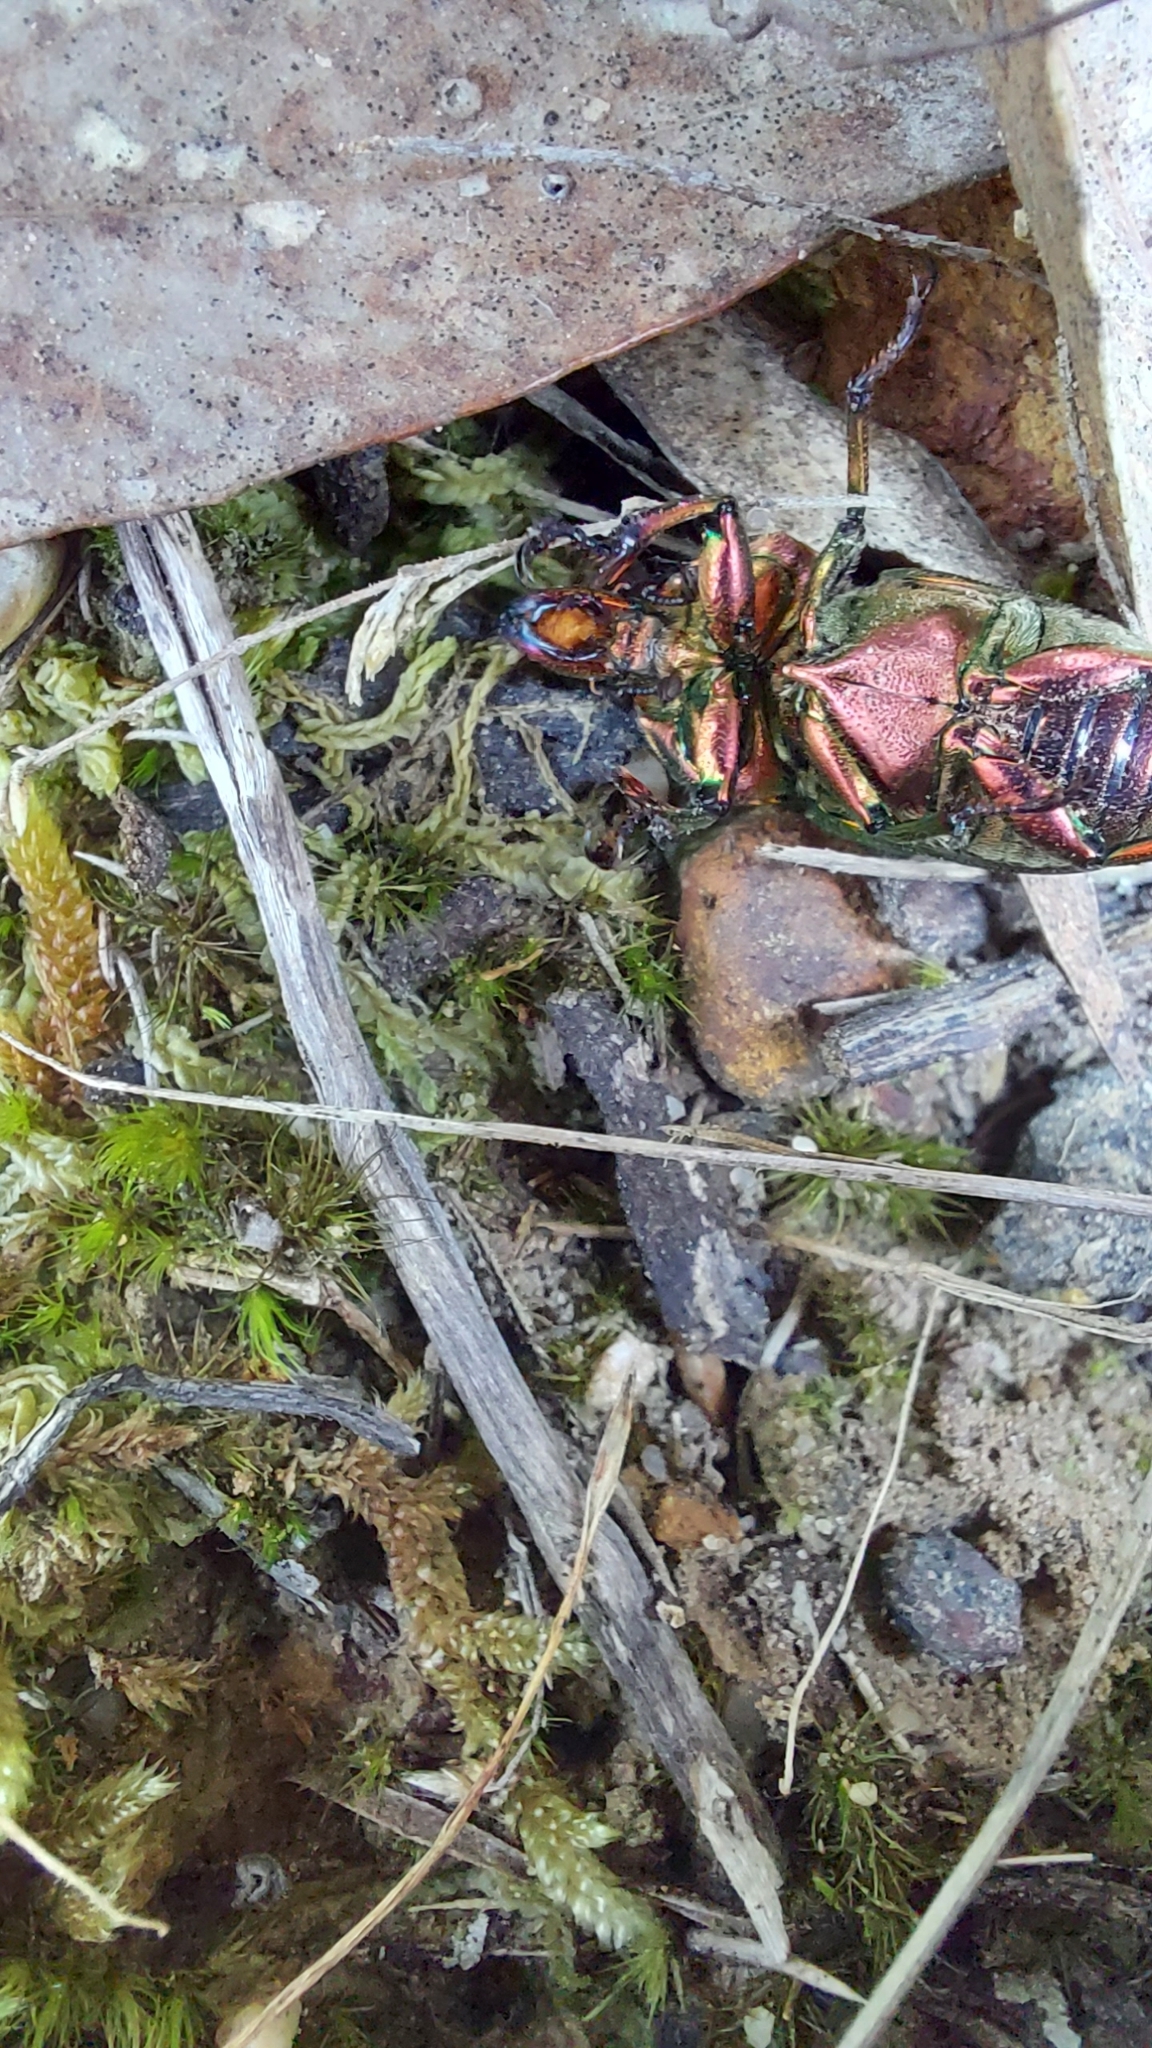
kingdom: Animalia
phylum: Arthropoda
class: Insecta
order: Coleoptera
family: Lucanidae
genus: Lamprima
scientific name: Lamprima aurata
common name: Golden stag beetle
